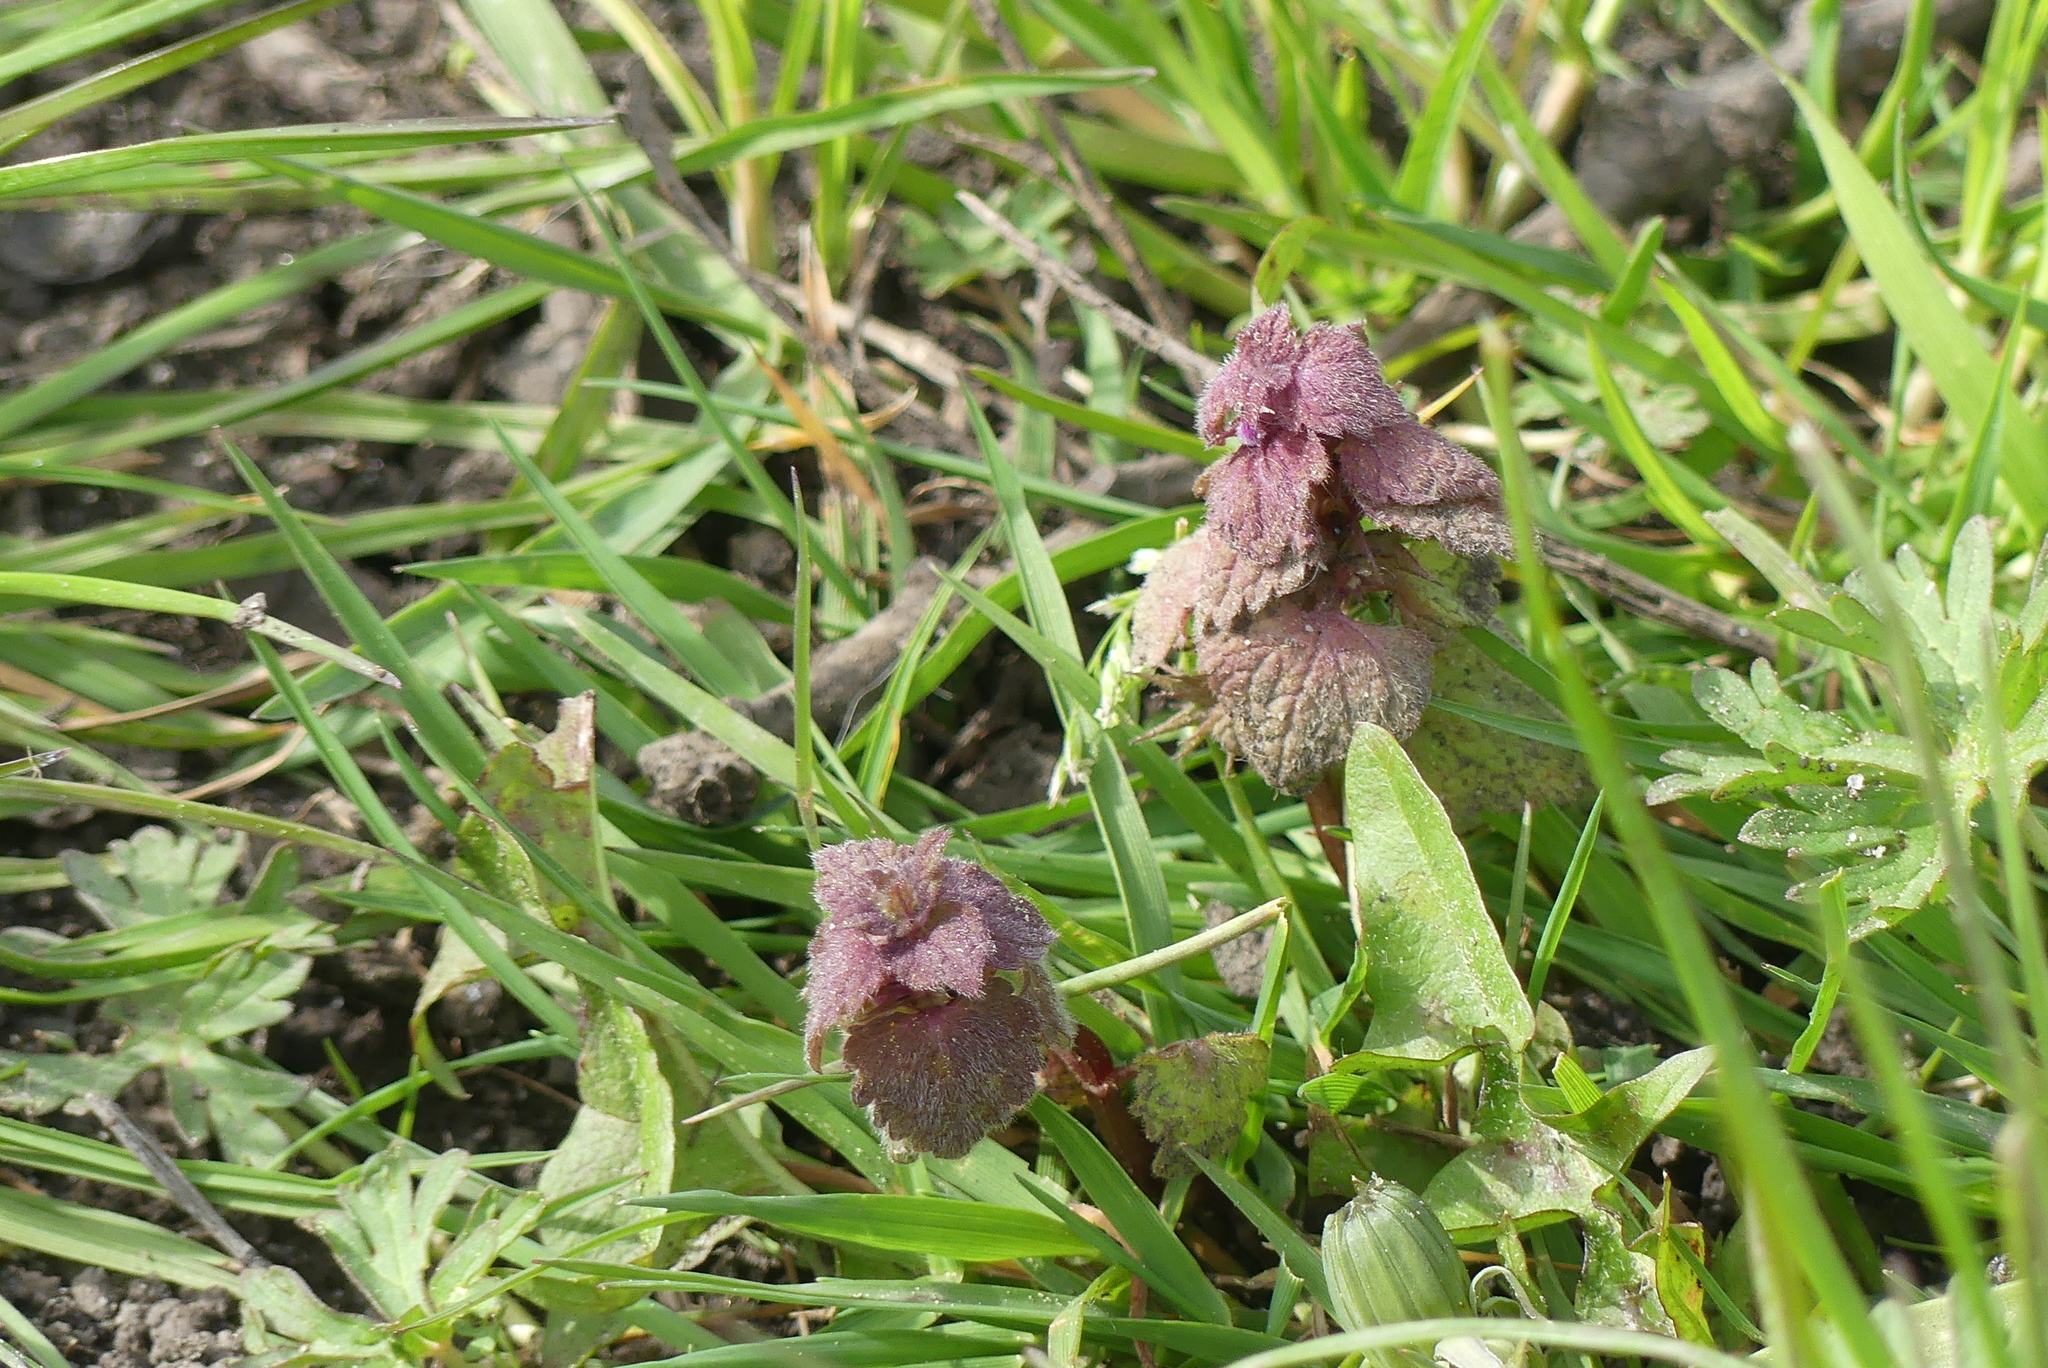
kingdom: Plantae
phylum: Tracheophyta
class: Magnoliopsida
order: Lamiales
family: Lamiaceae
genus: Lamium
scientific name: Lamium purpureum
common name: Red dead-nettle
